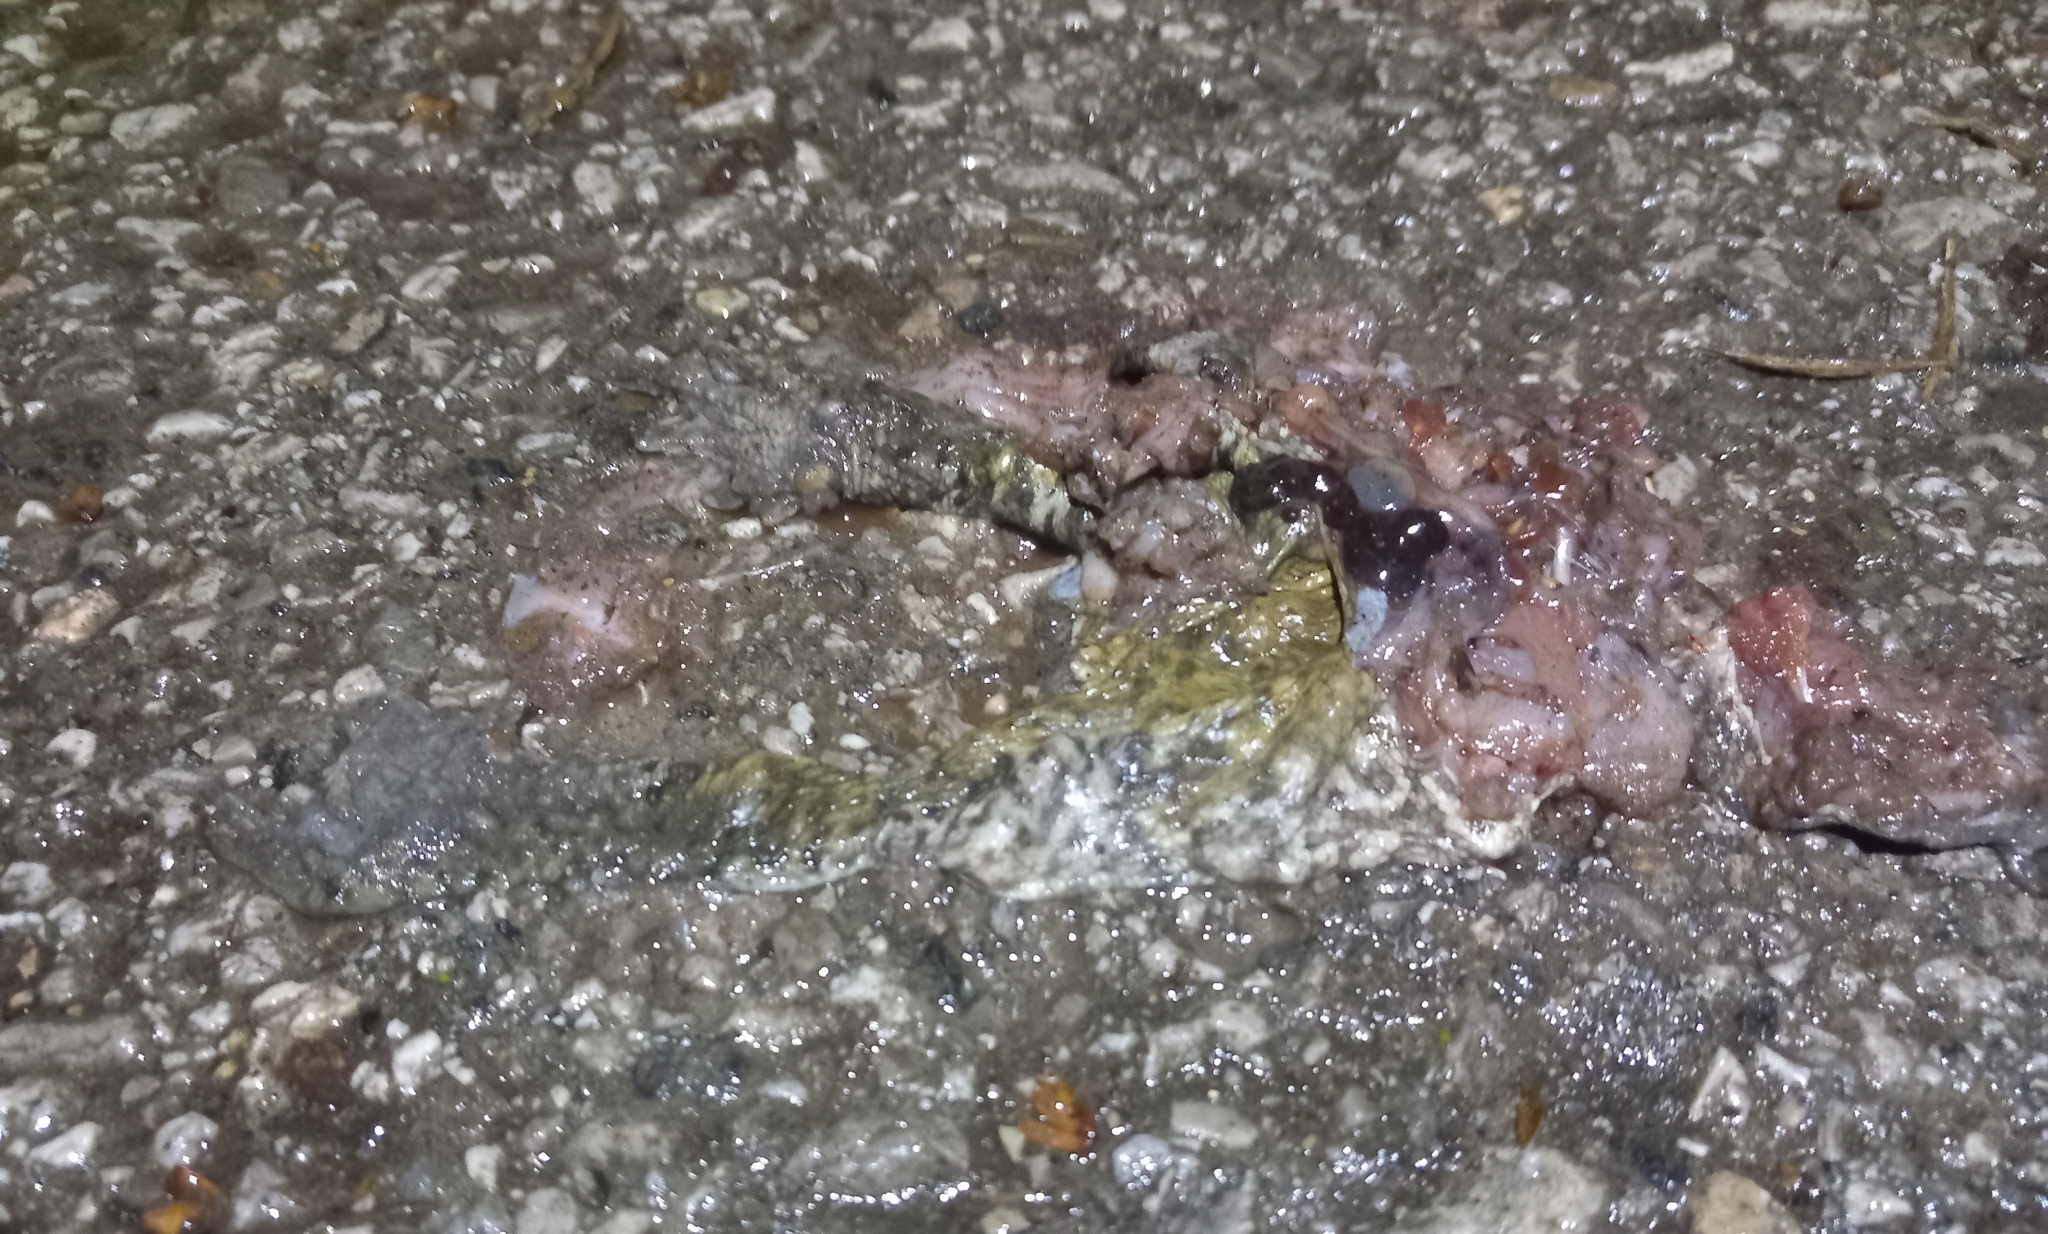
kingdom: Animalia
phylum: Chordata
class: Amphibia
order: Anura
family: Bufonidae
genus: Bufo
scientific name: Bufo bufo
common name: Common toad
